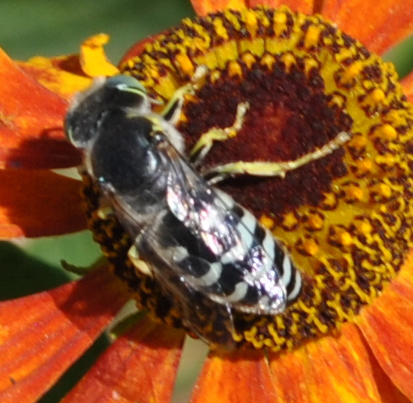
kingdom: Animalia
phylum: Arthropoda
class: Insecta
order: Hymenoptera
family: Crabronidae
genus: Bembix
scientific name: Bembix americana
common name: American sand wasp
